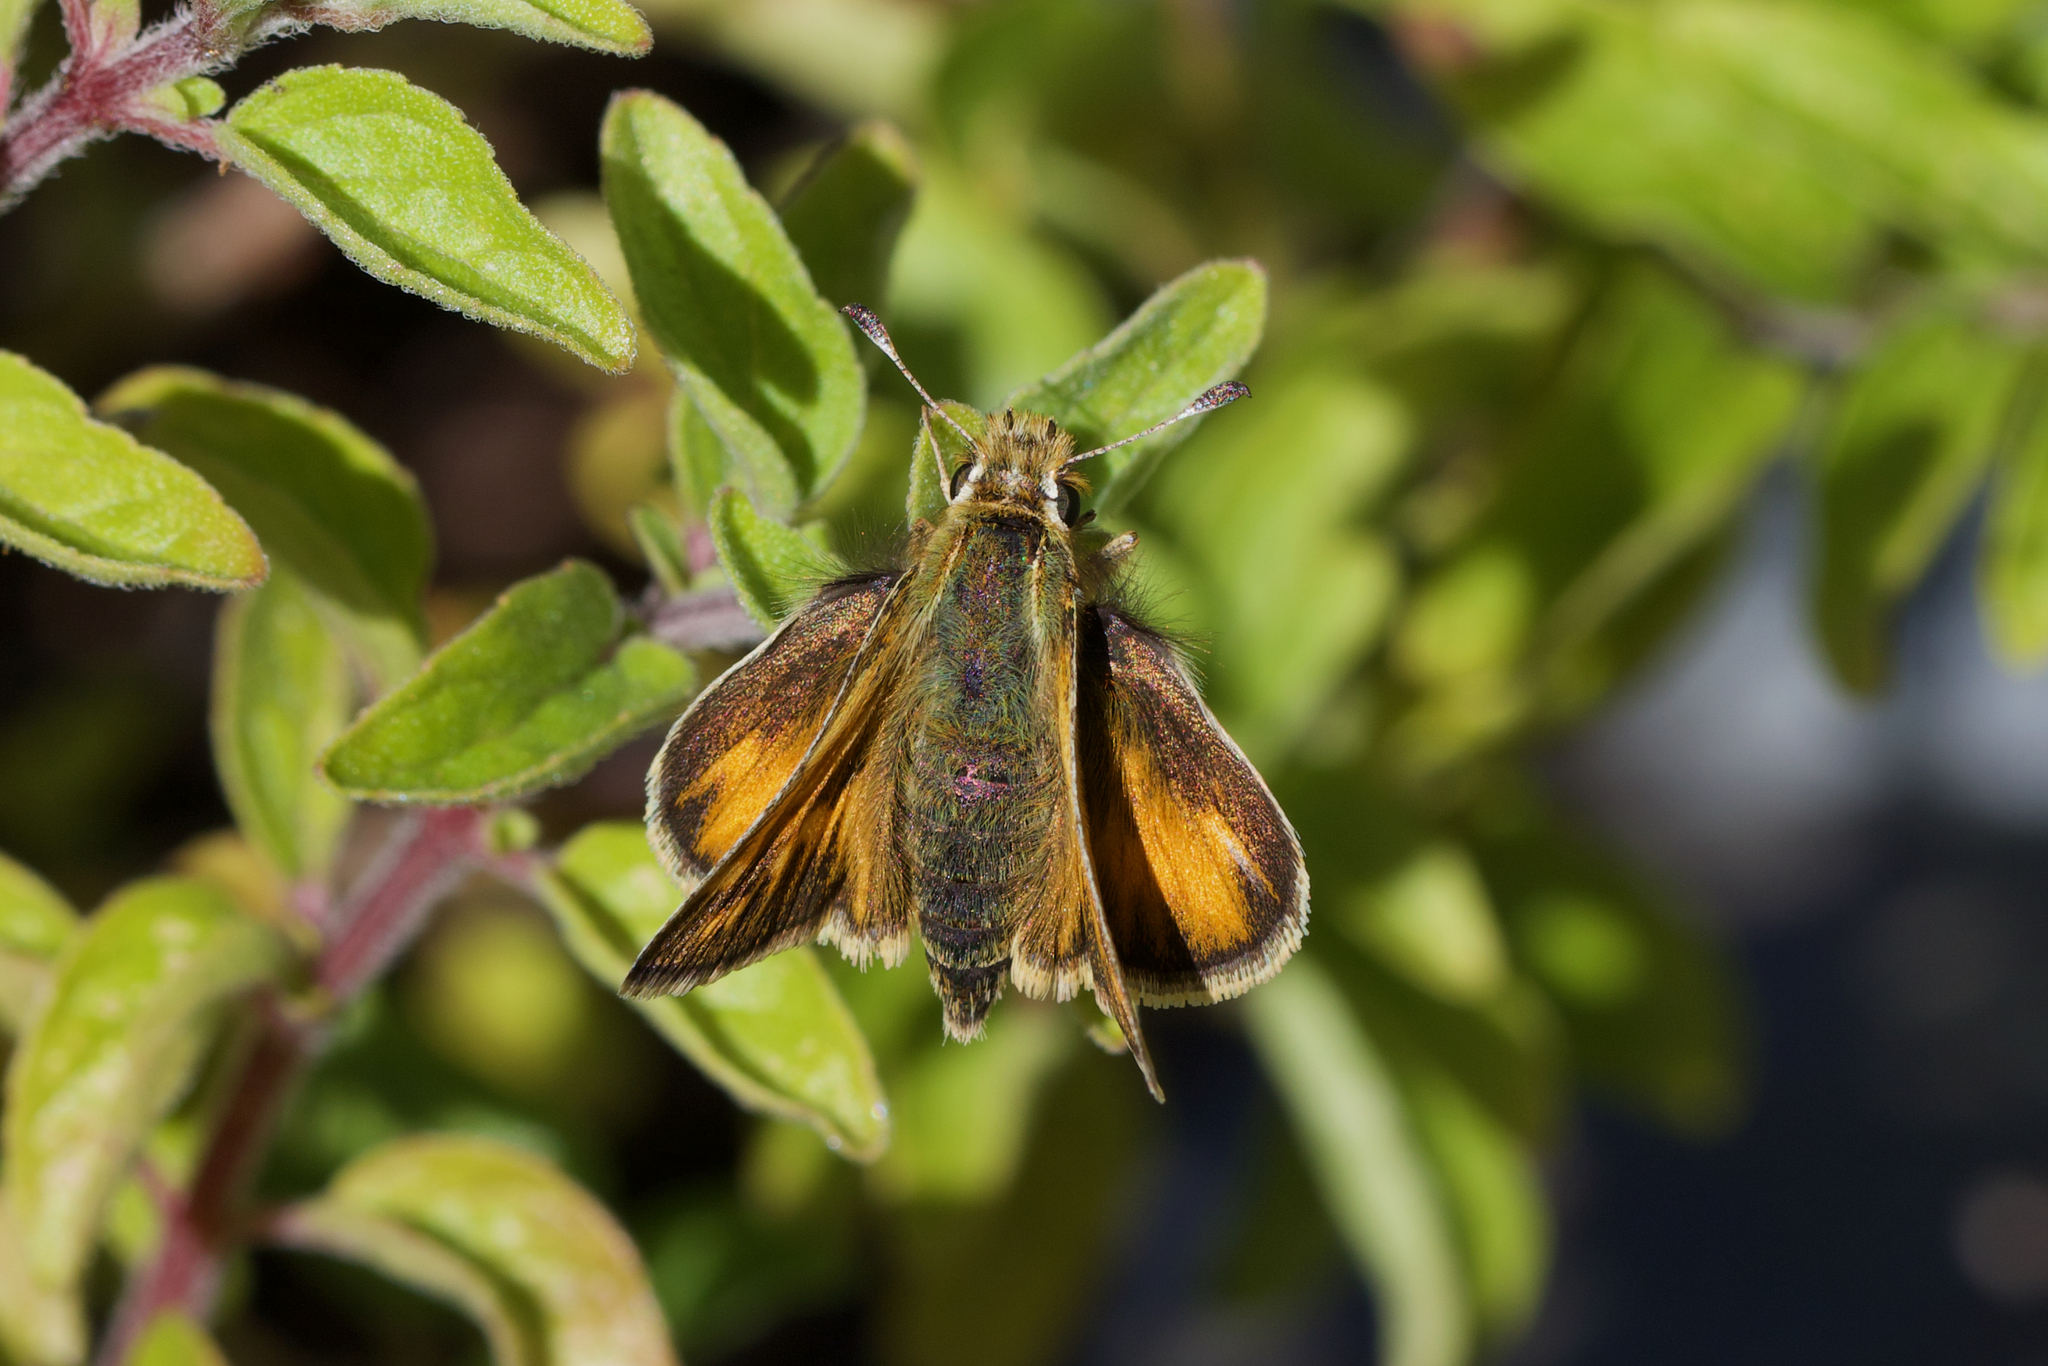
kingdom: Animalia
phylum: Arthropoda
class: Insecta
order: Lepidoptera
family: Hesperiidae
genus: Polites
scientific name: Polites sabuleti
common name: Sandhill skipper
